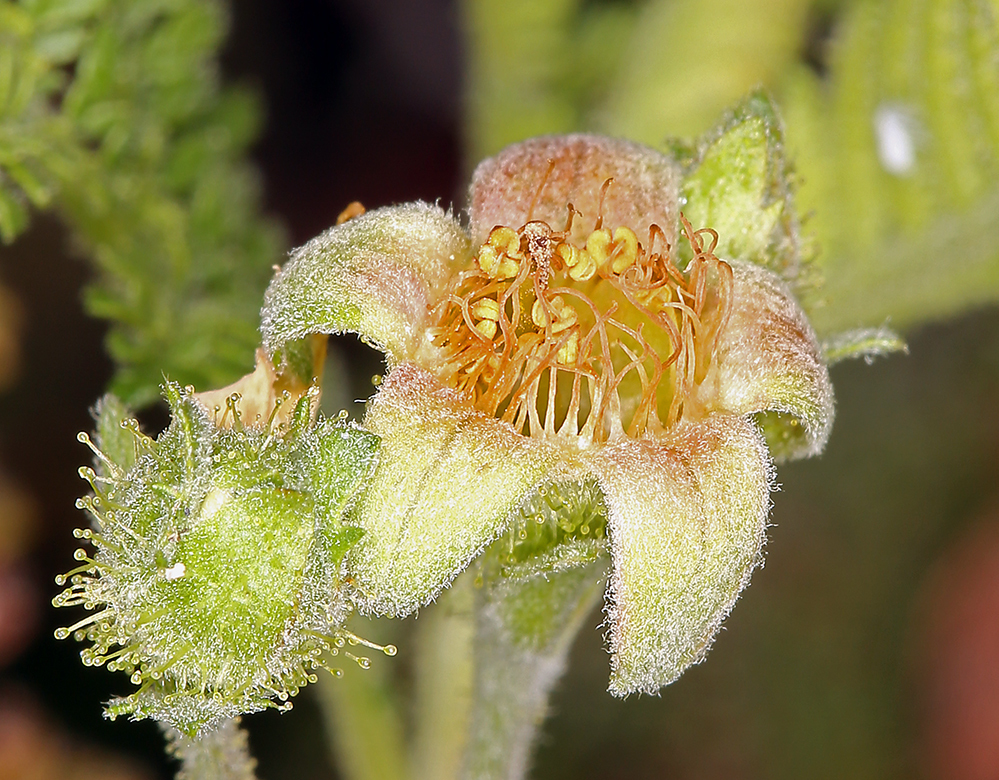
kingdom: Plantae
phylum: Tracheophyta
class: Magnoliopsida
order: Rosales
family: Rosaceae
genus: Chamaebatia
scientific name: Chamaebatia foliolosa
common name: Mountain misery
